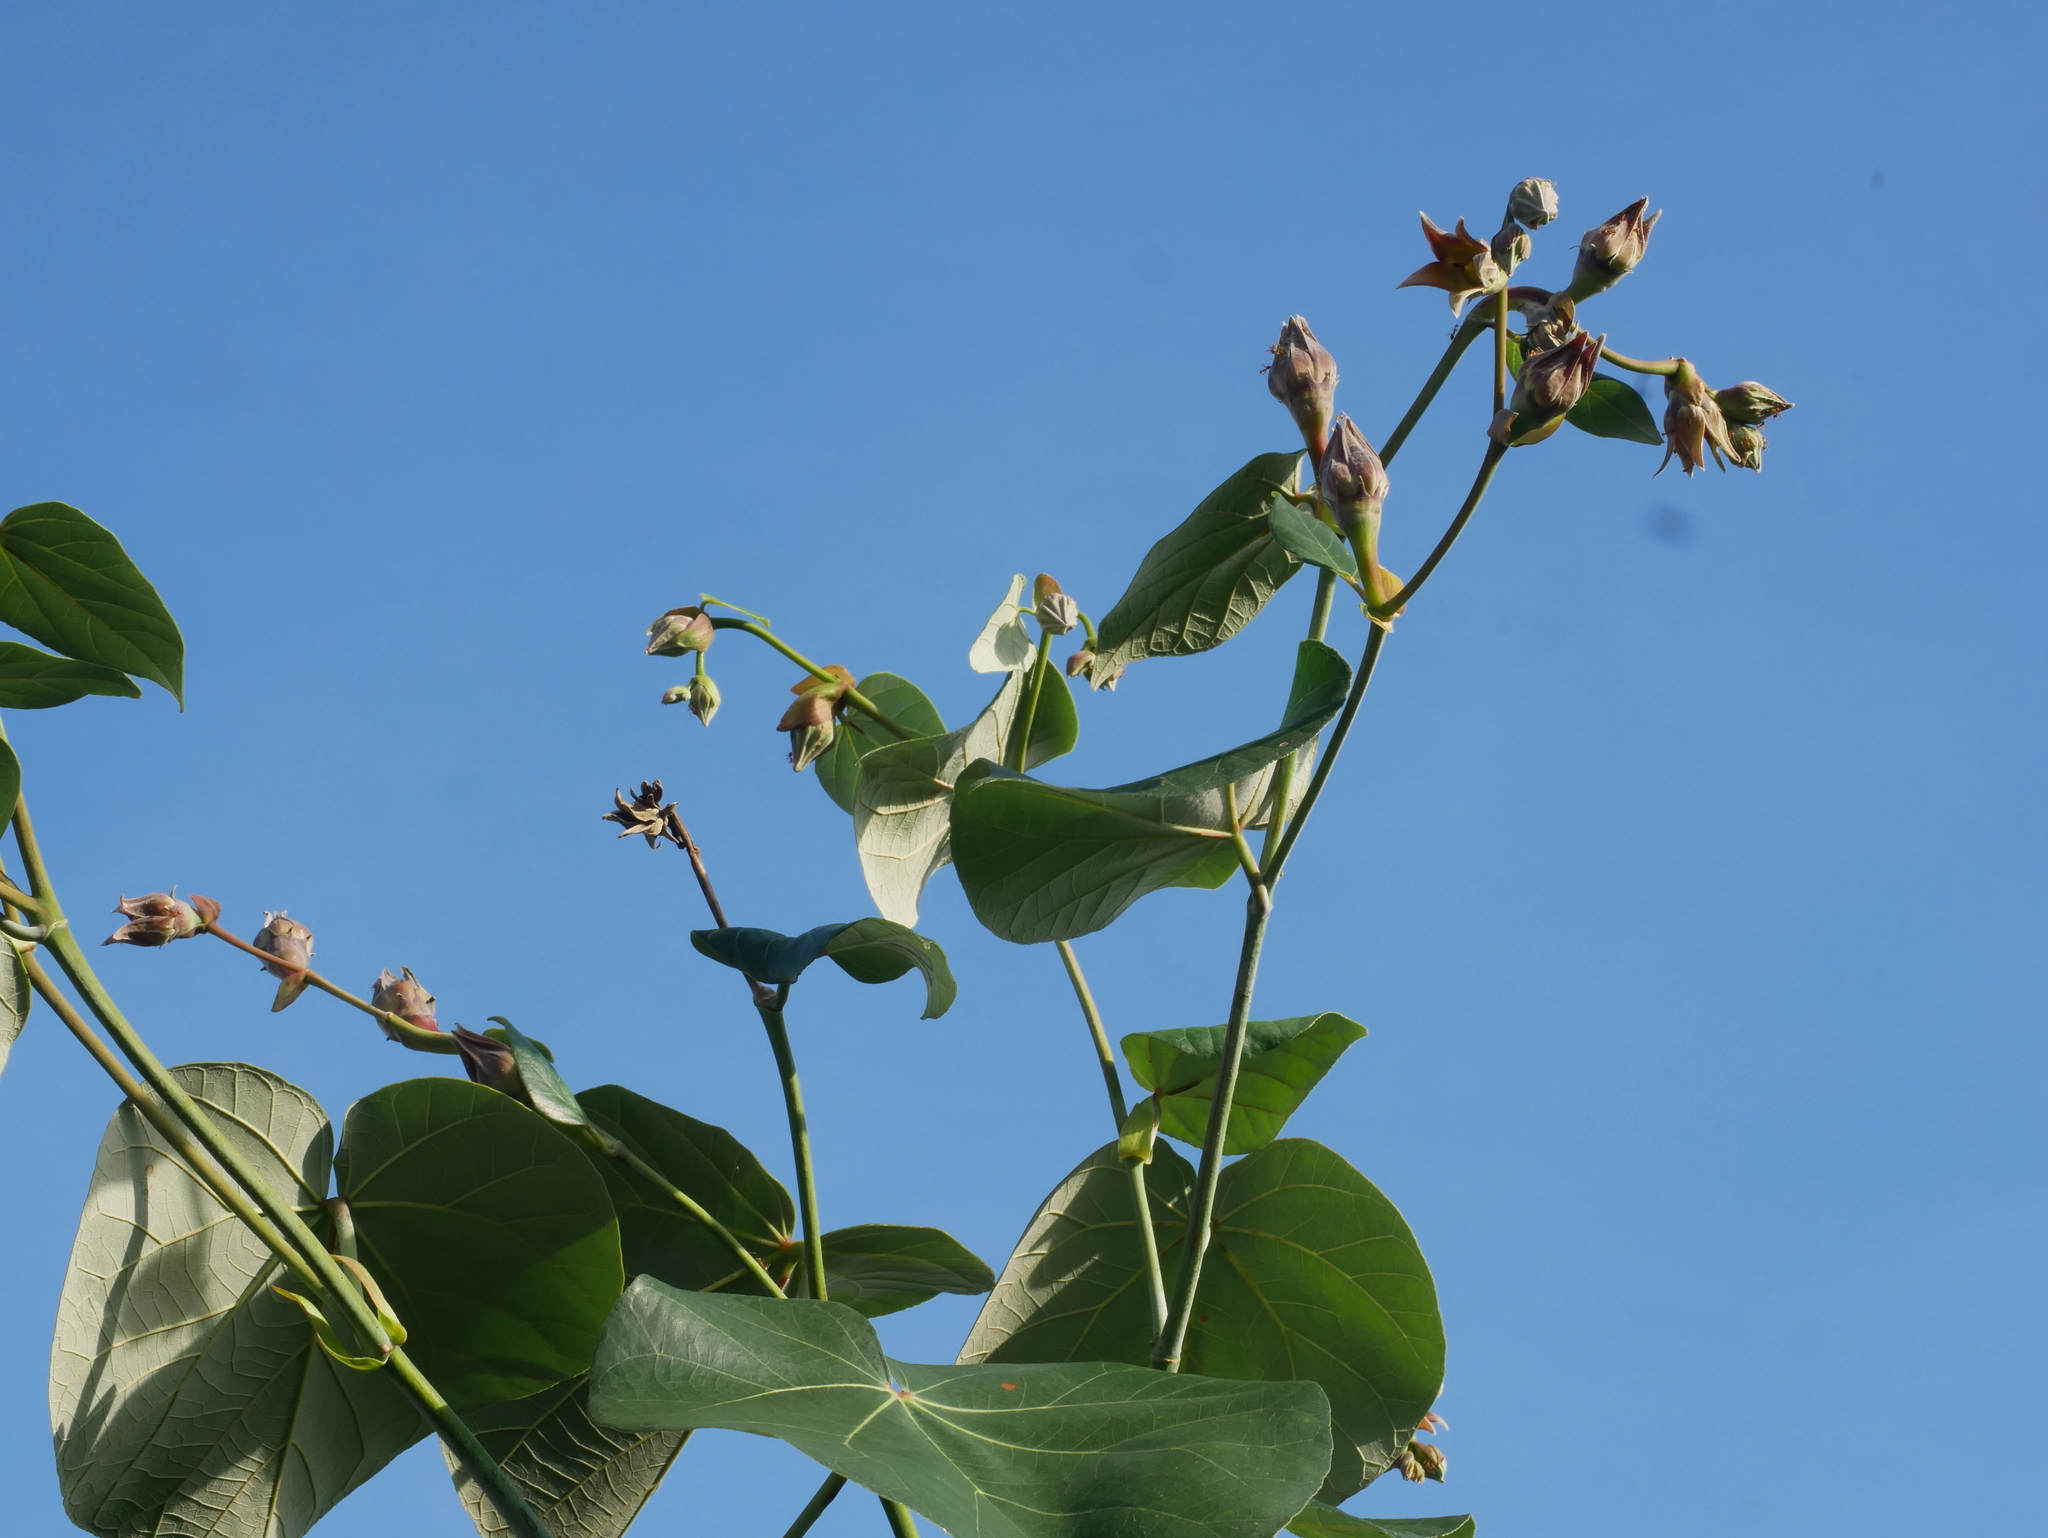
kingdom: Plantae
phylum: Tracheophyta
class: Magnoliopsida
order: Malvales
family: Malvaceae
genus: Talipariti
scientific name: Talipariti tiliaceum
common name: Sea hibiscus
